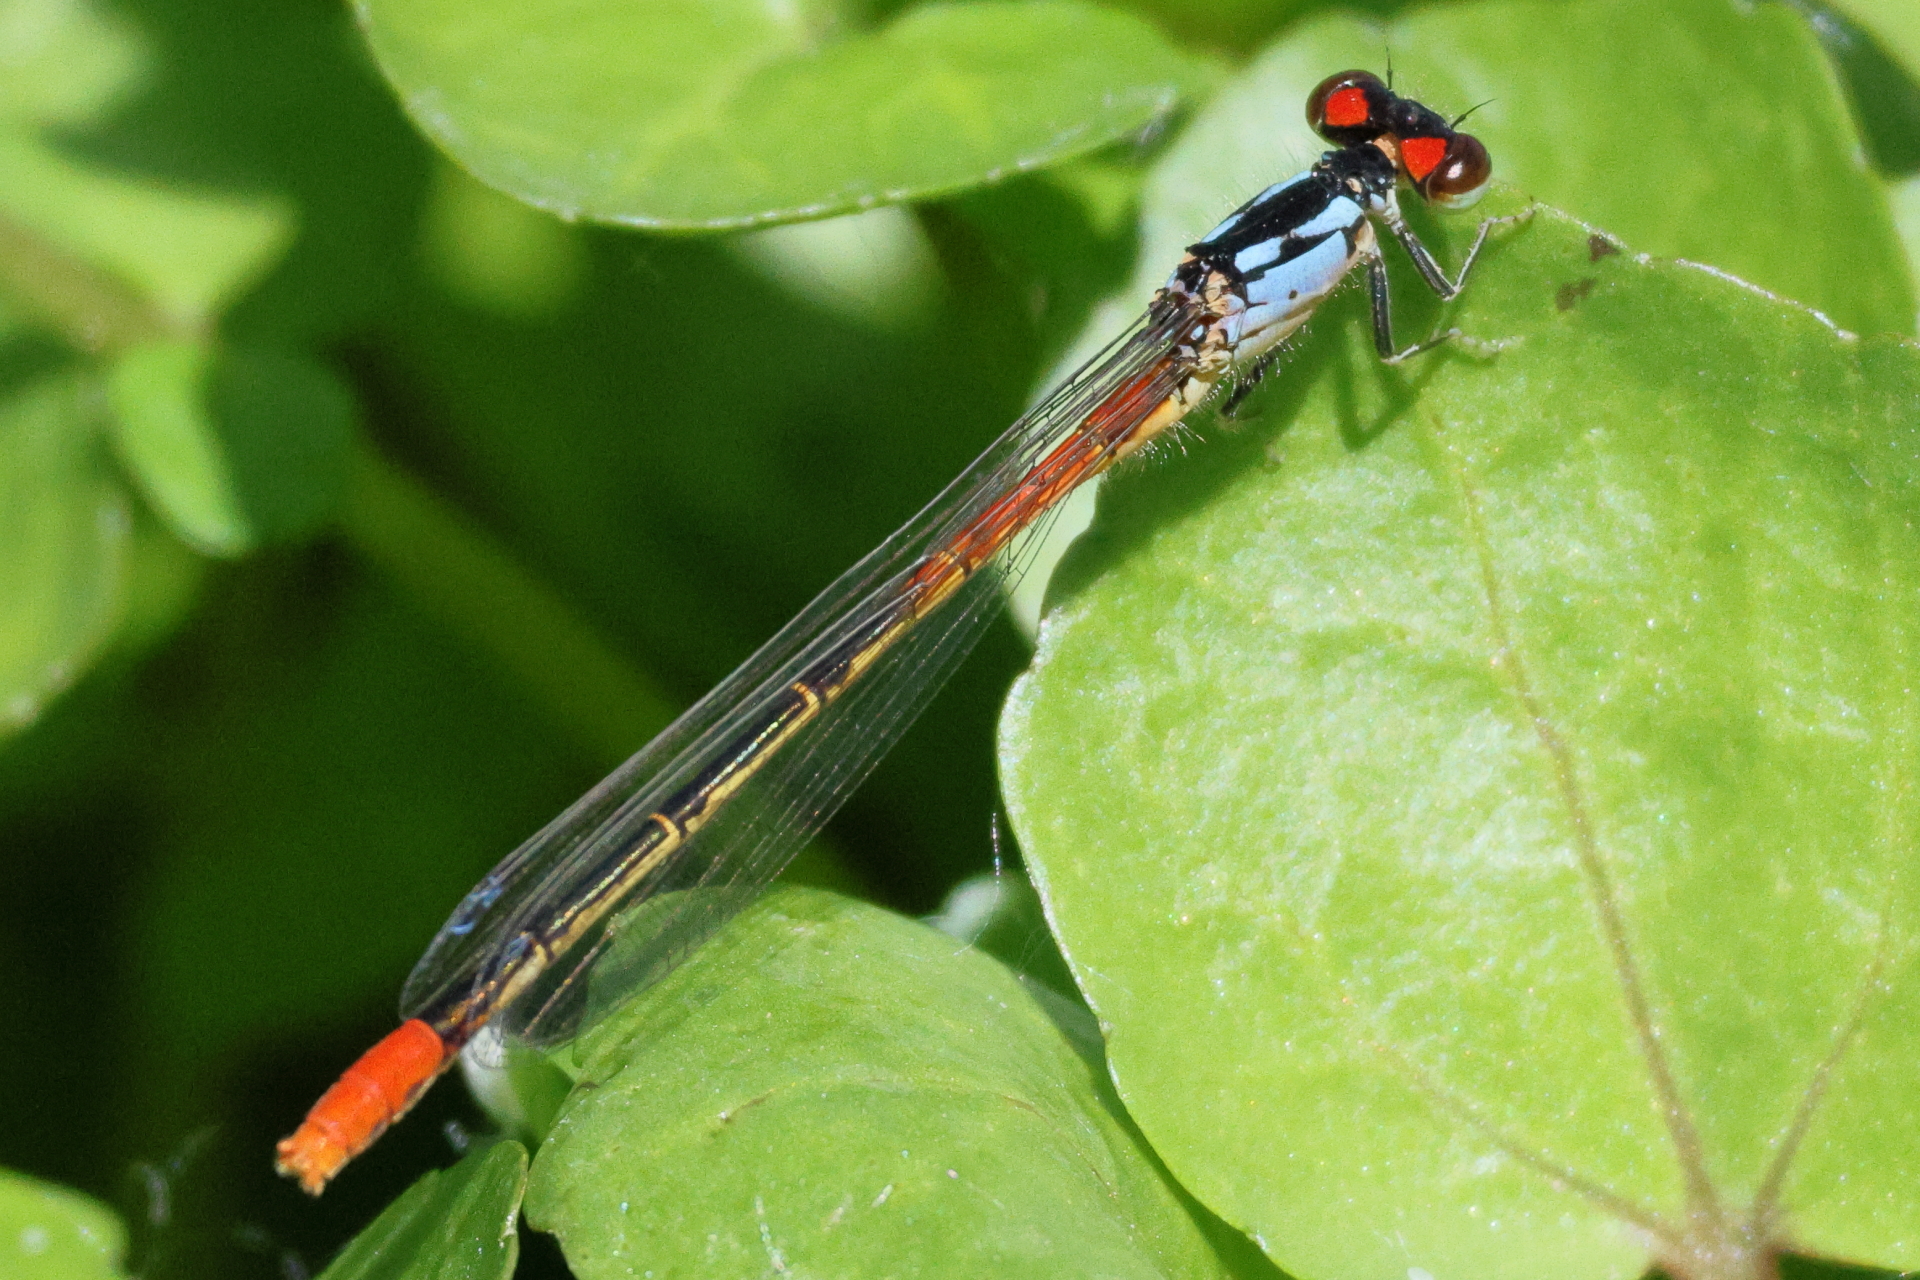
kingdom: Animalia
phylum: Arthropoda
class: Insecta
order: Odonata
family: Coenagrionidae
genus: Hesperagrion
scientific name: Hesperagrion heterodoxum
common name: Painted damsel
